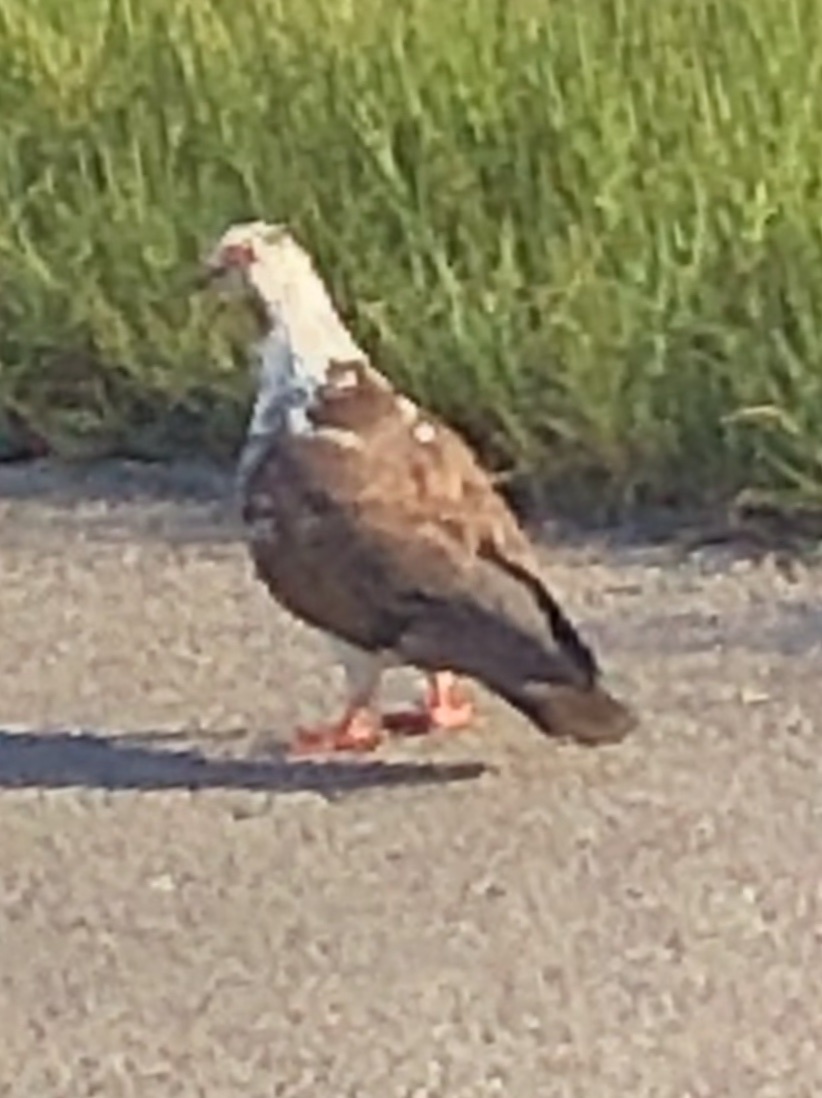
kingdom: Animalia
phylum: Chordata
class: Aves
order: Columbiformes
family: Columbidae
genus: Columba
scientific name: Columba livia
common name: Rock pigeon
